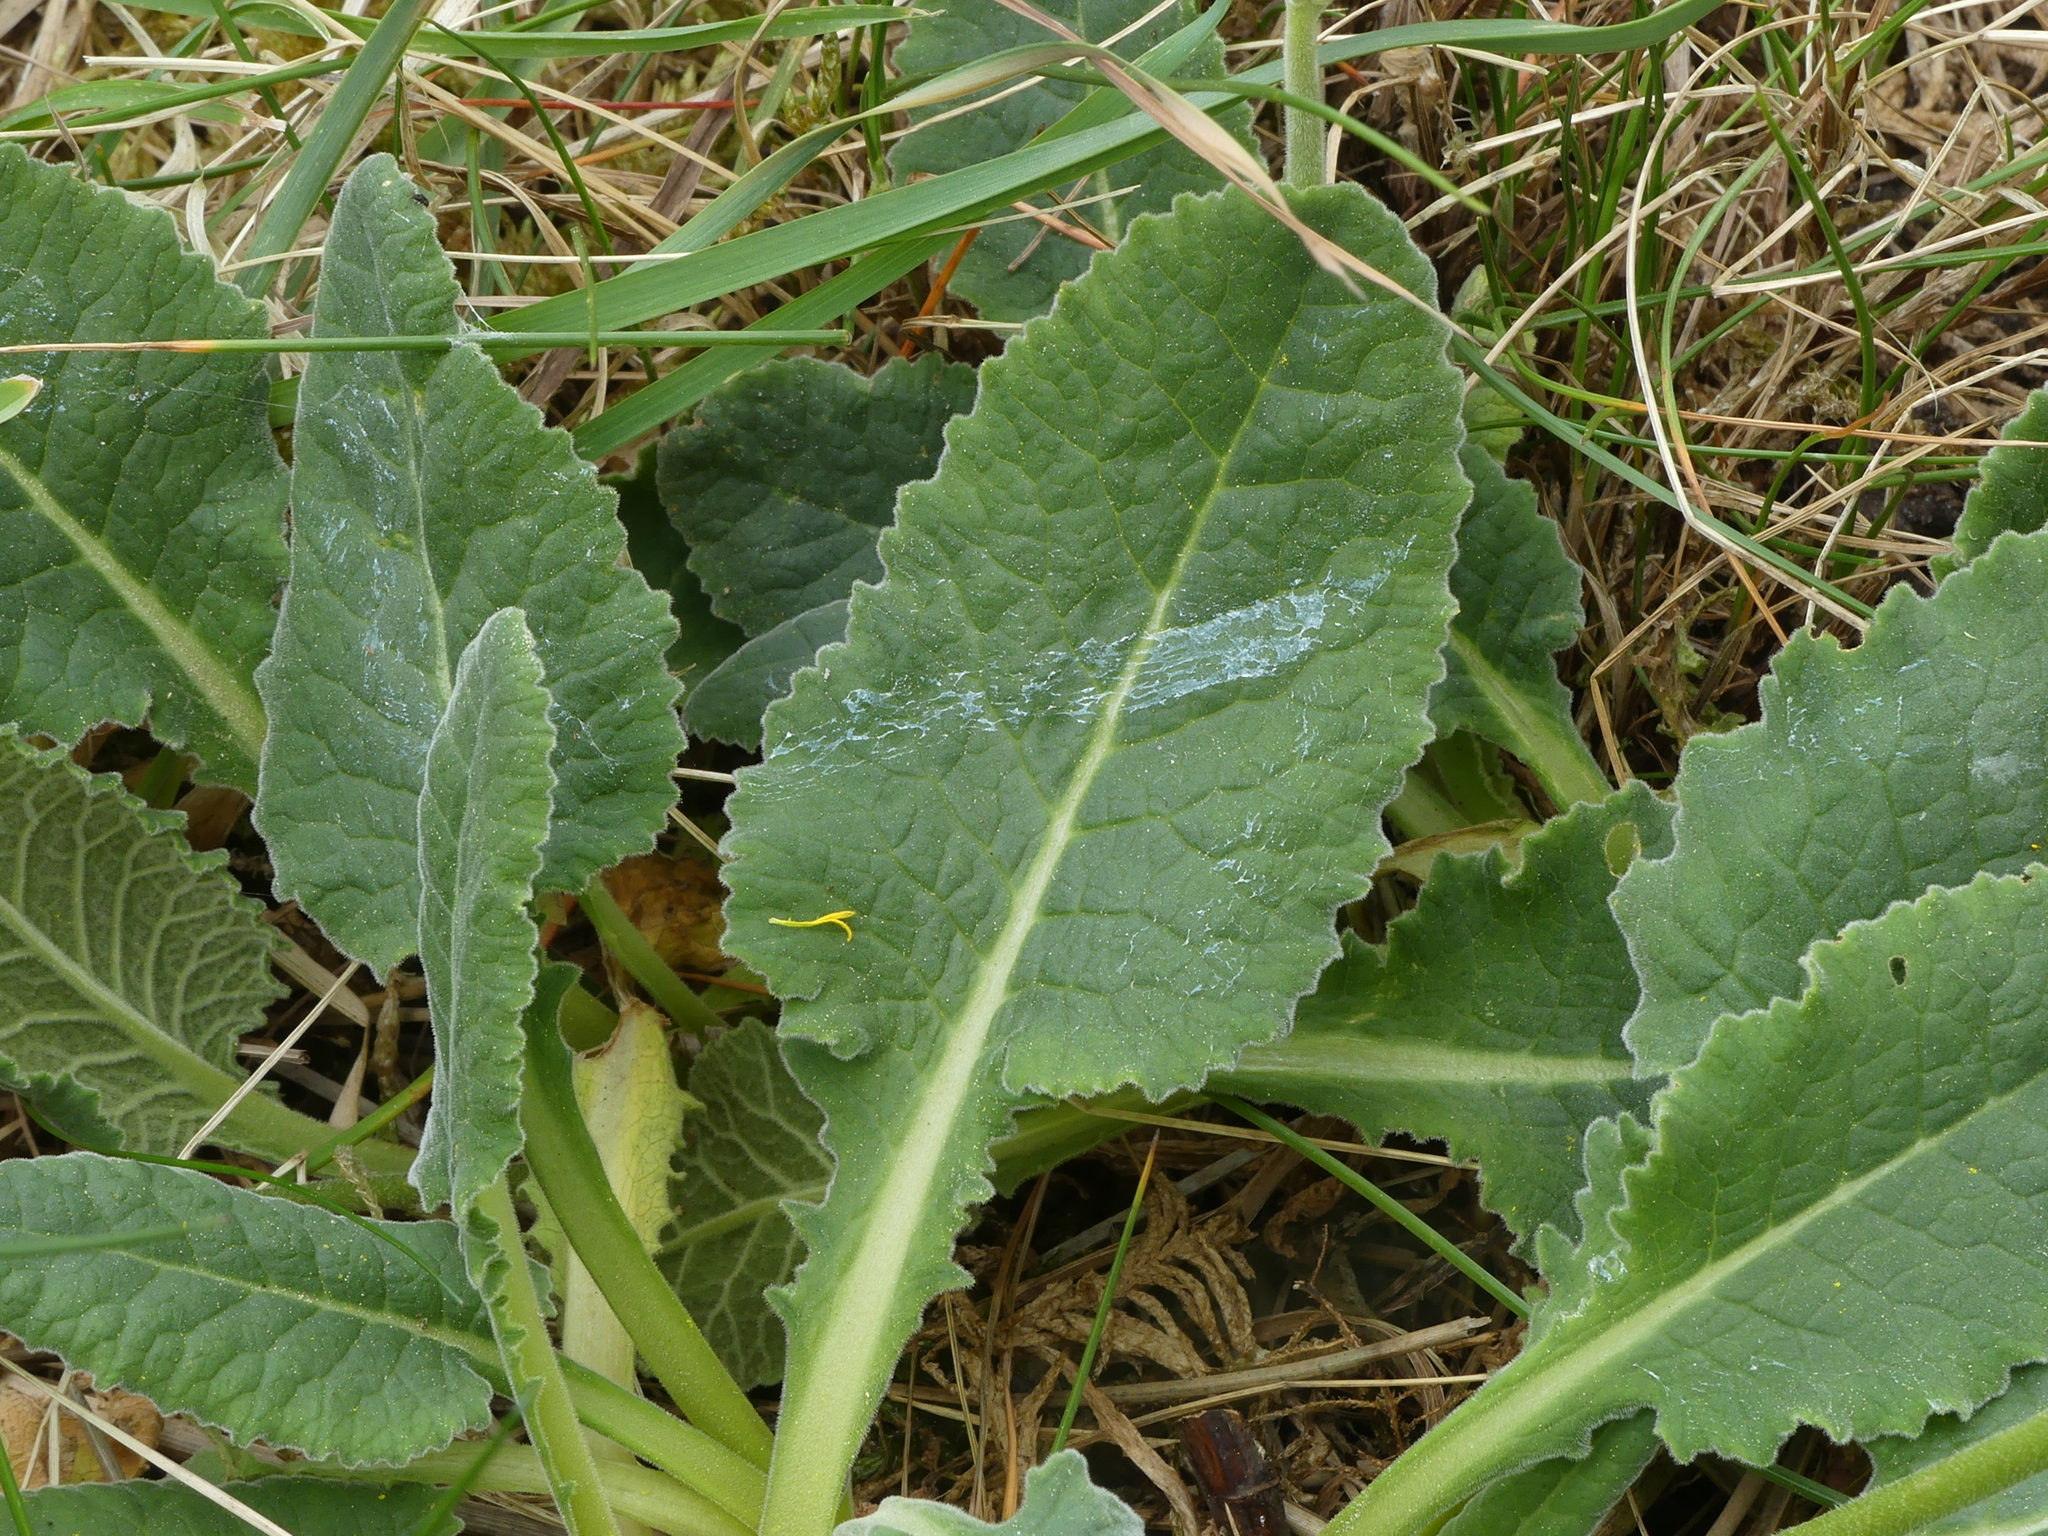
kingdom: Plantae
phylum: Tracheophyta
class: Magnoliopsida
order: Ericales
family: Primulaceae
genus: Primula
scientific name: Primula veris
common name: Cowslip
